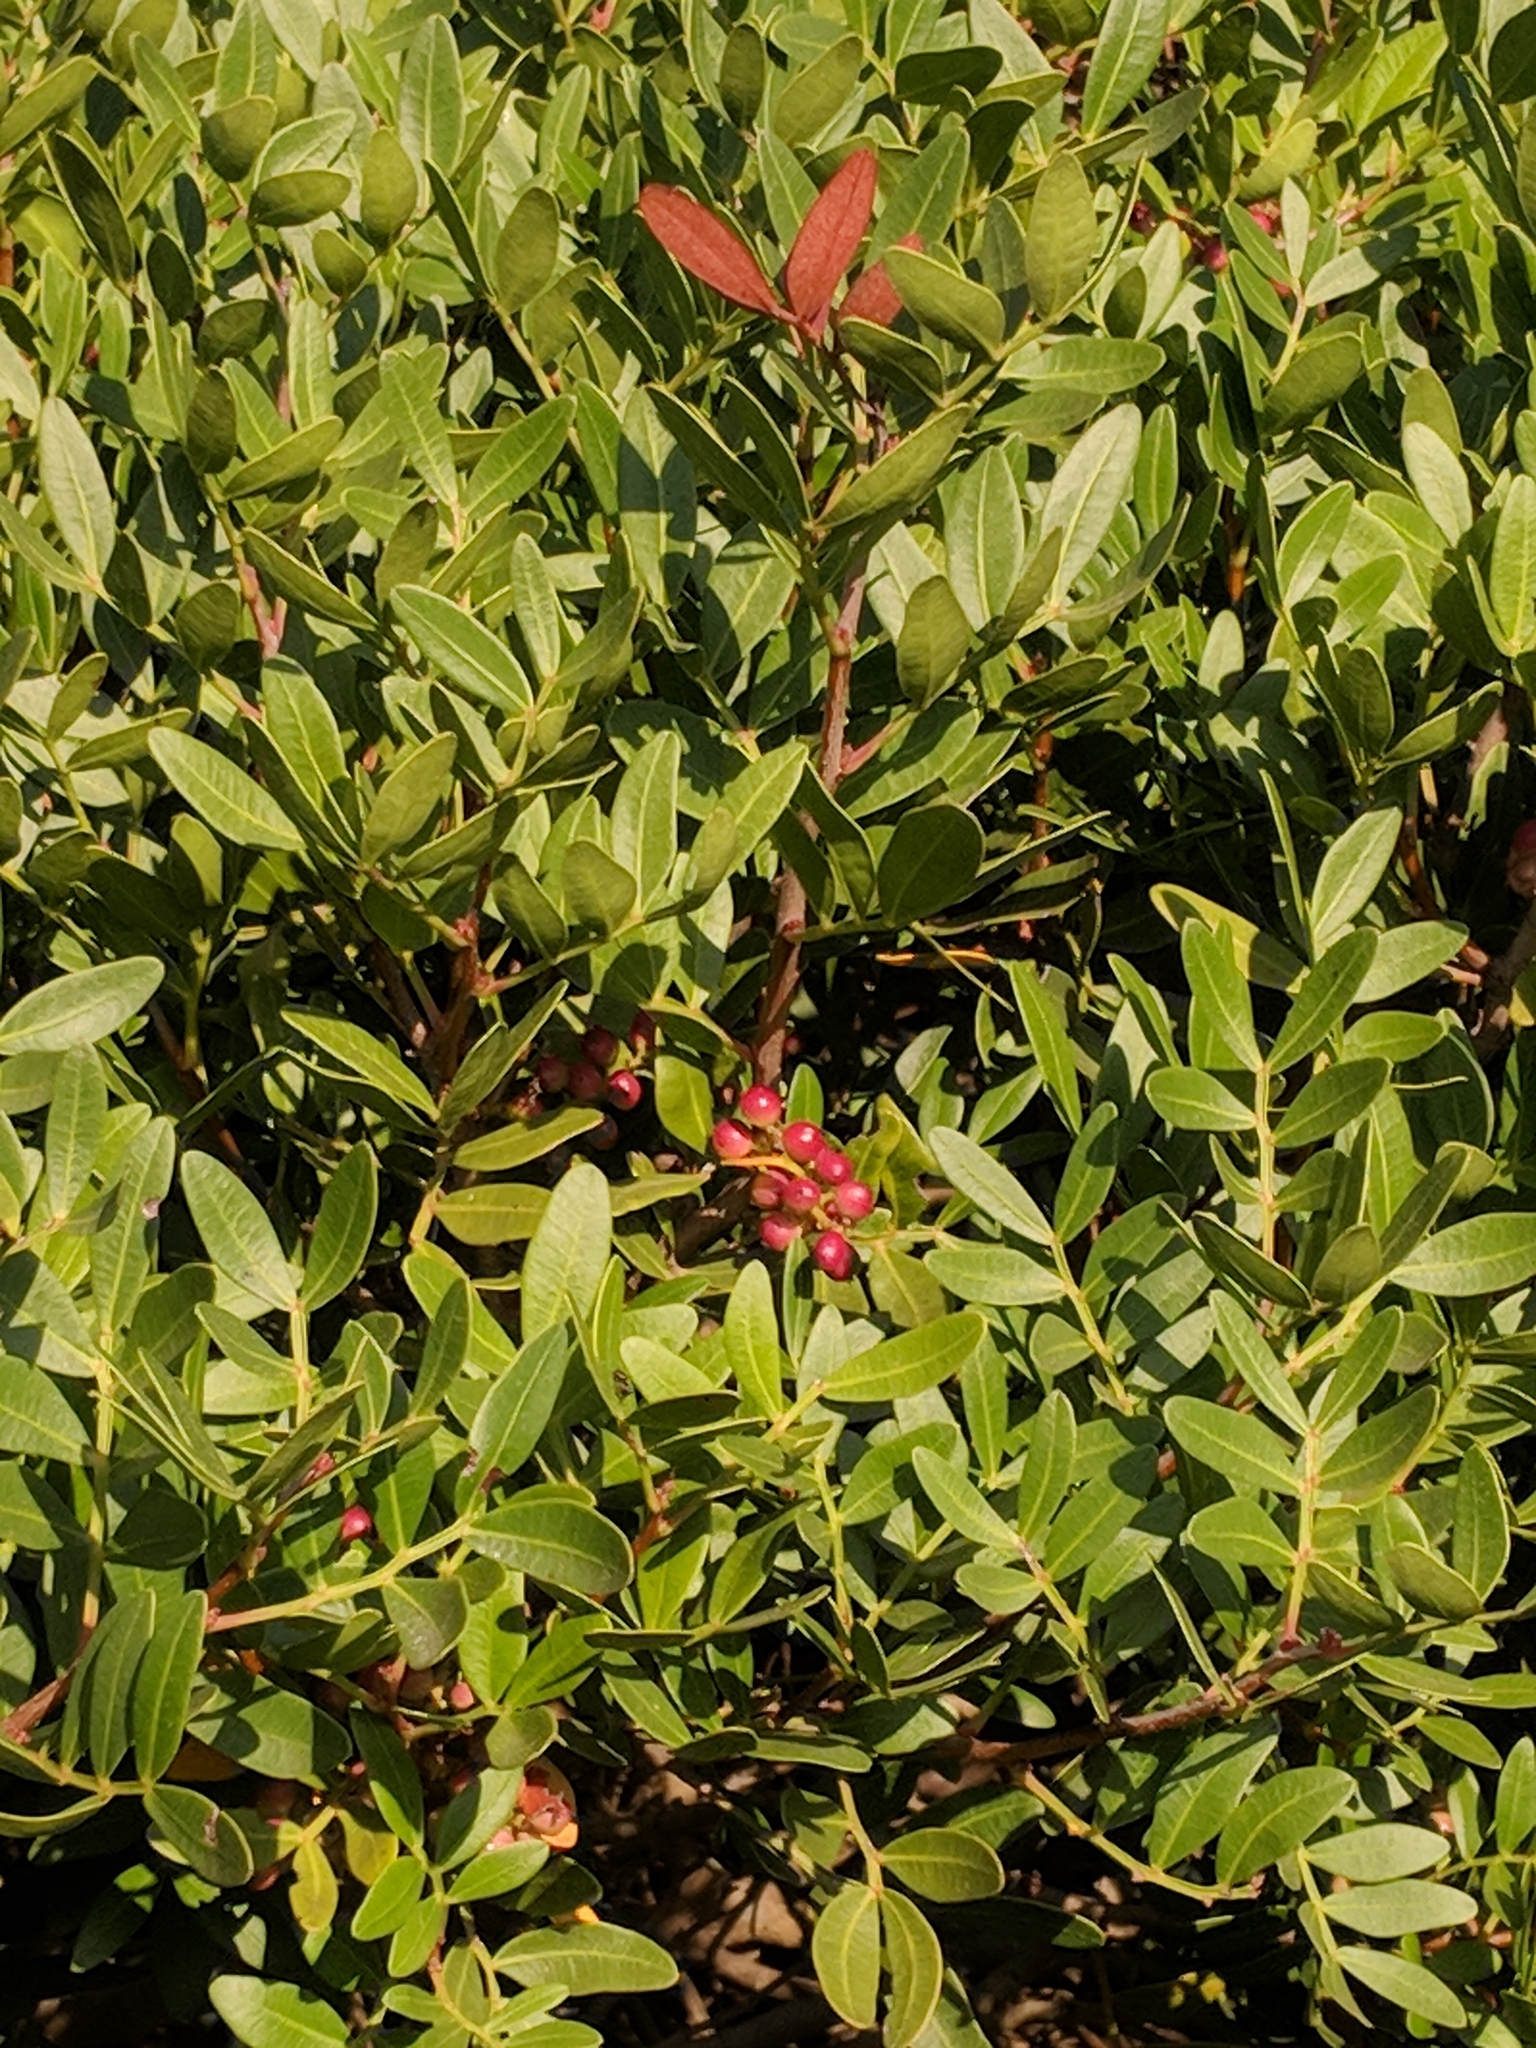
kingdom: Plantae
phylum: Tracheophyta
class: Magnoliopsida
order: Sapindales
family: Anacardiaceae
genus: Pistacia
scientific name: Pistacia lentiscus
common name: Lentisk
